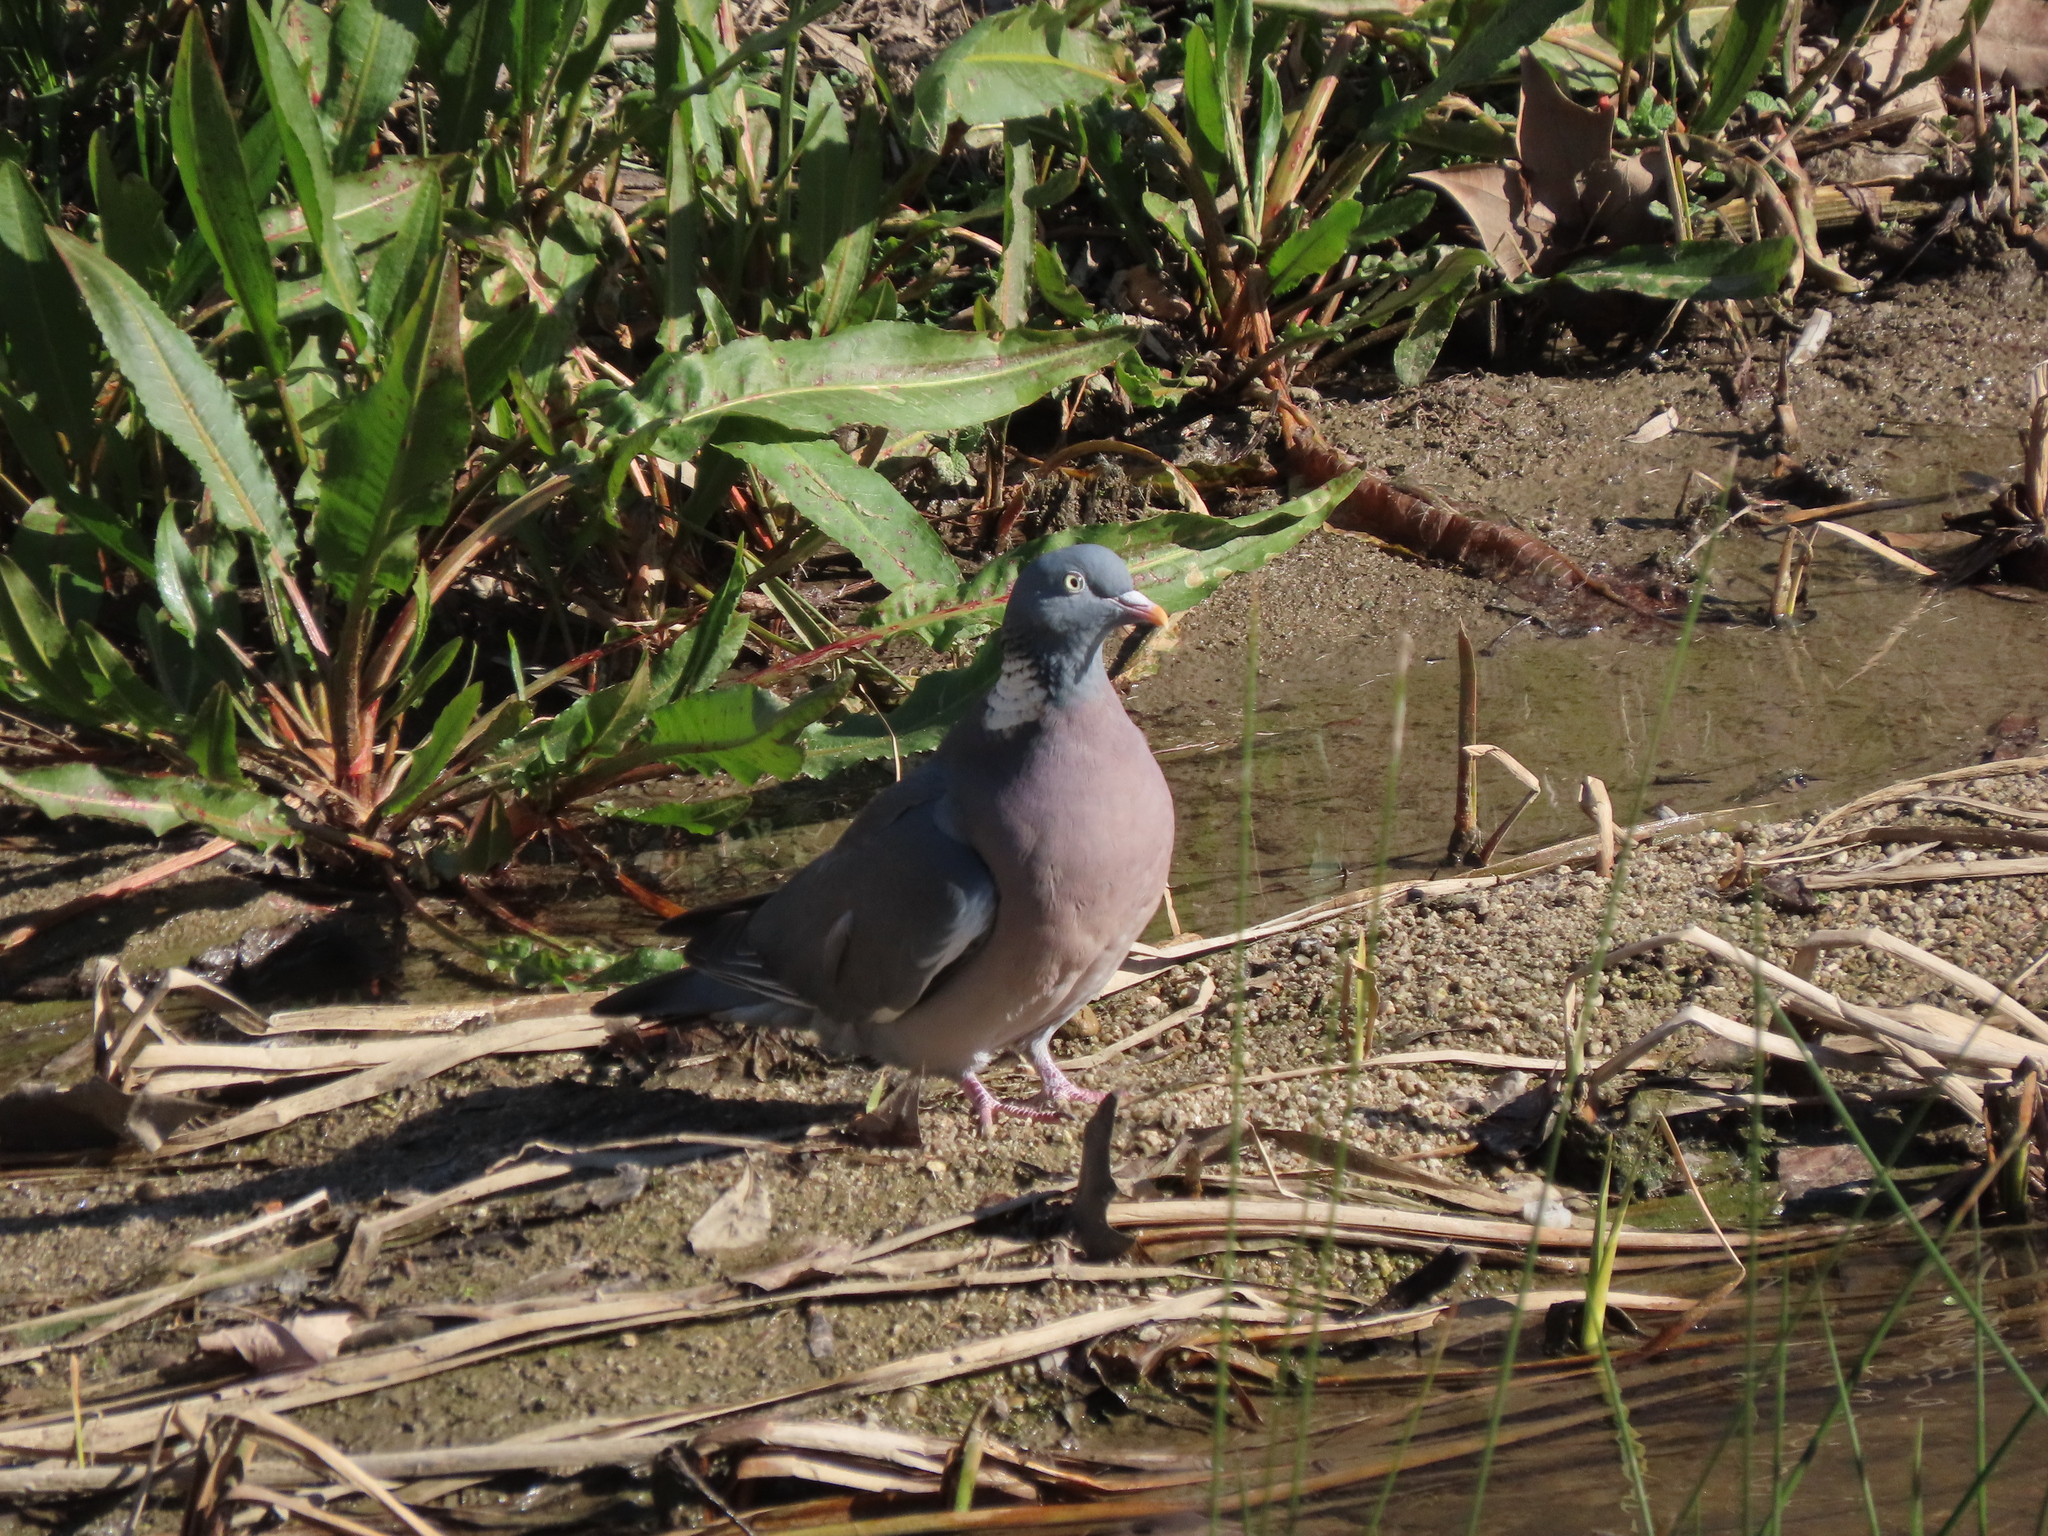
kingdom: Animalia
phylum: Chordata
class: Aves
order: Columbiformes
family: Columbidae
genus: Columba
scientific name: Columba palumbus
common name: Common wood pigeon
